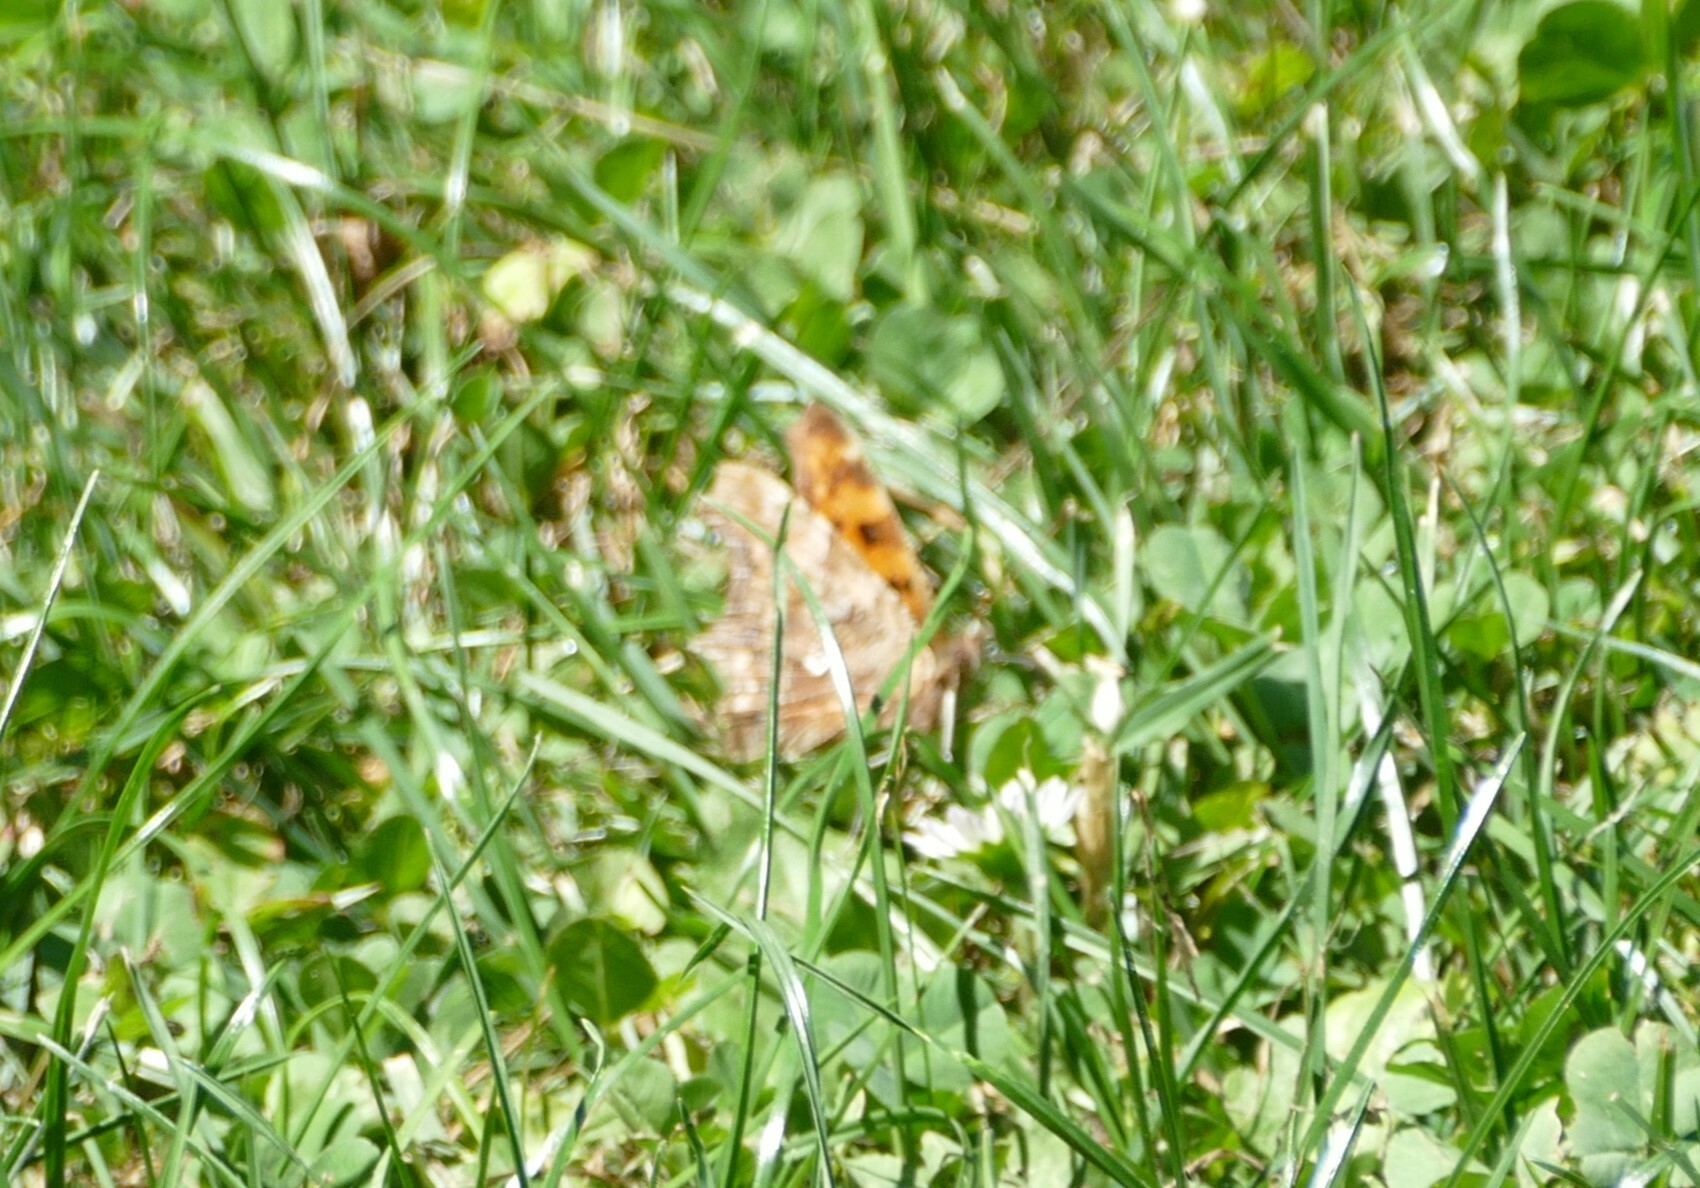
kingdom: Animalia
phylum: Arthropoda
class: Insecta
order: Lepidoptera
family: Nymphalidae
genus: Polygonia
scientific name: Polygonia c-album
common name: Comma
